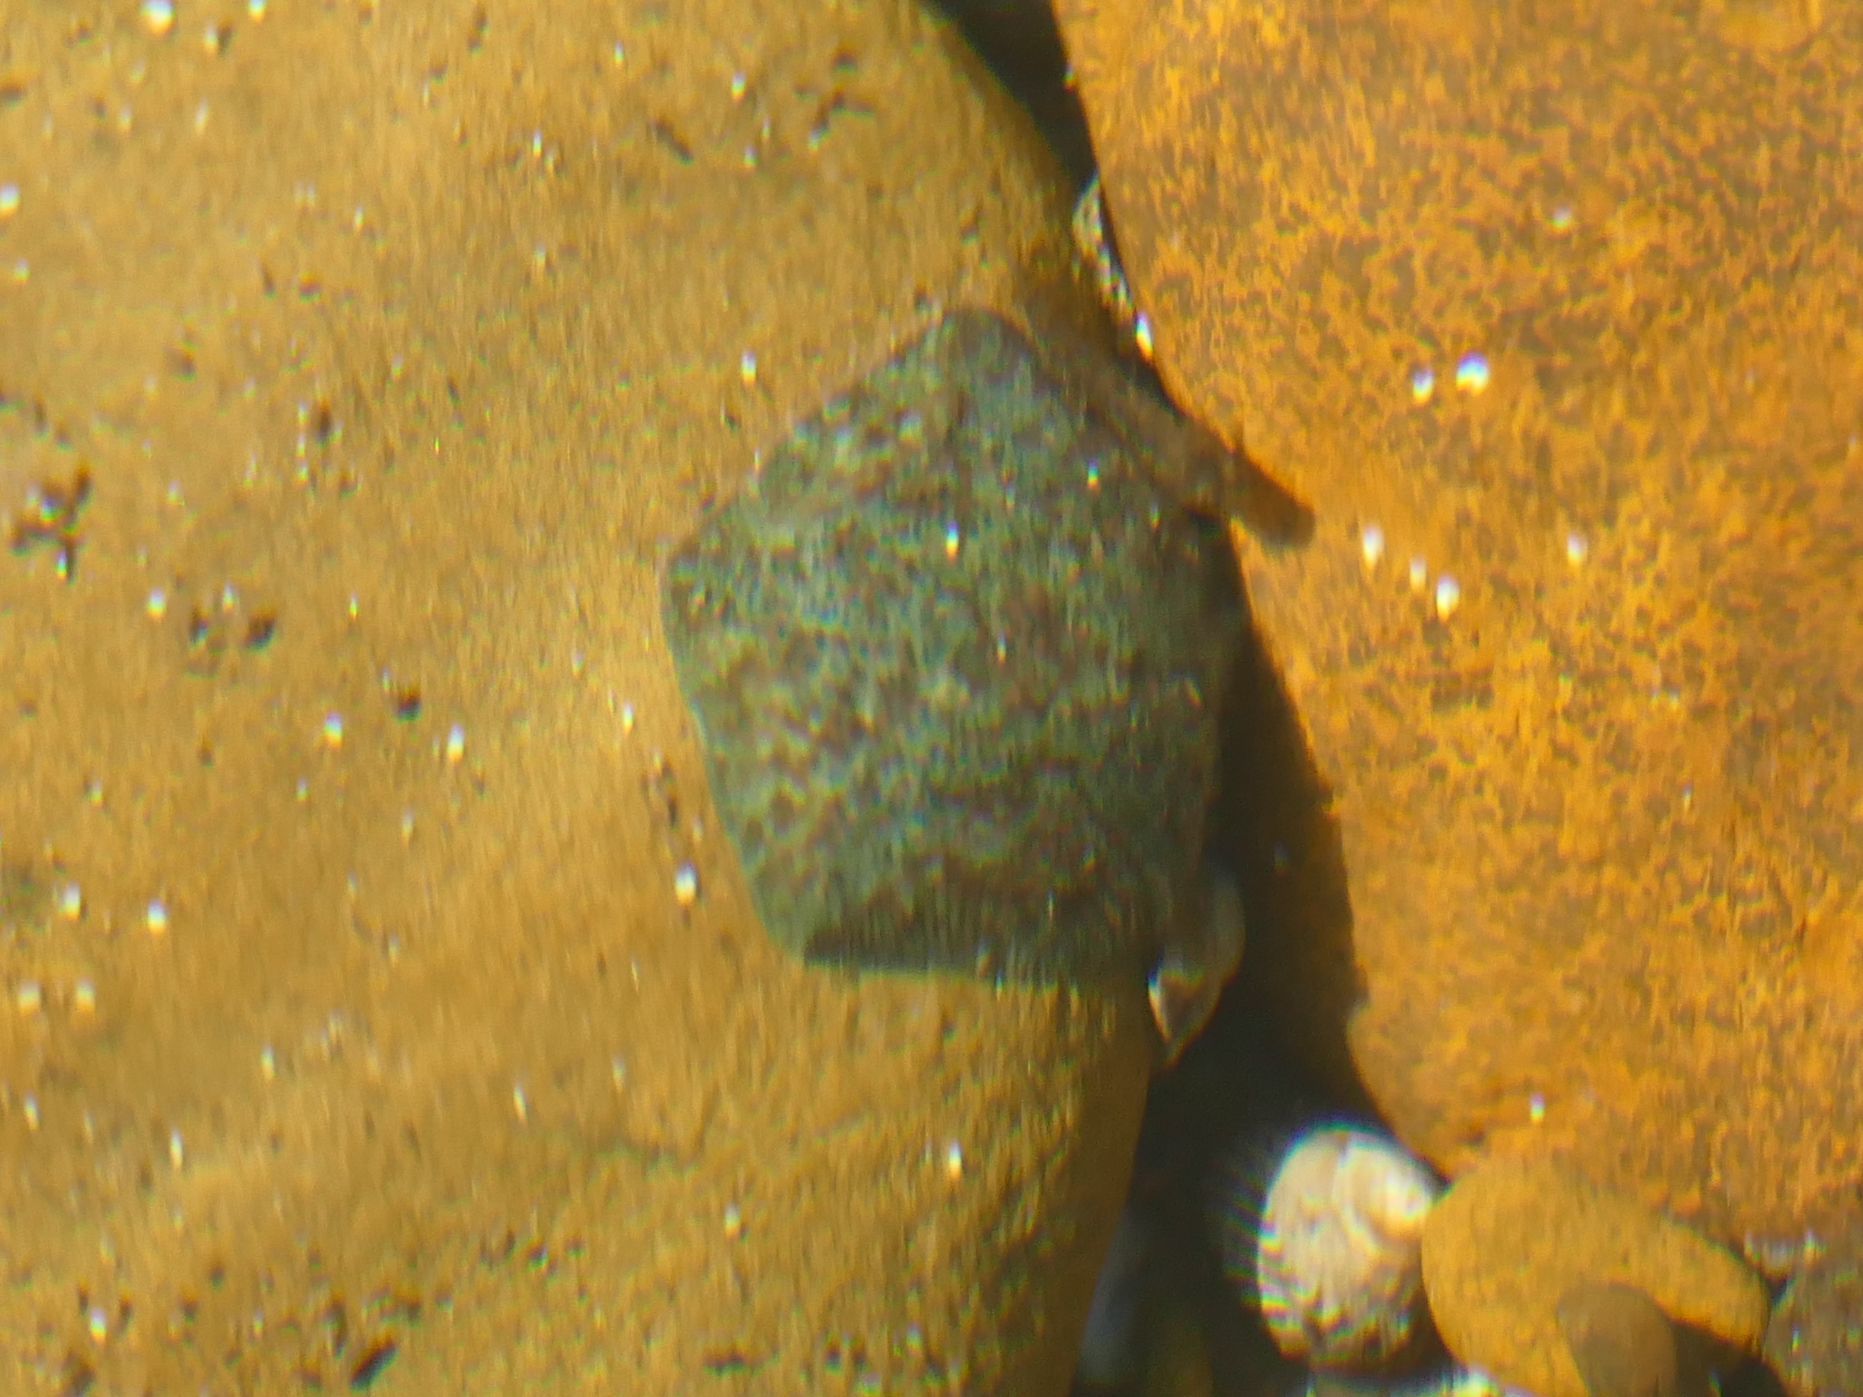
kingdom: Animalia
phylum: Echinodermata
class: Asteroidea
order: Valvatida
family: Asterinidae
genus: Parvulastra
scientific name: Parvulastra exigua
